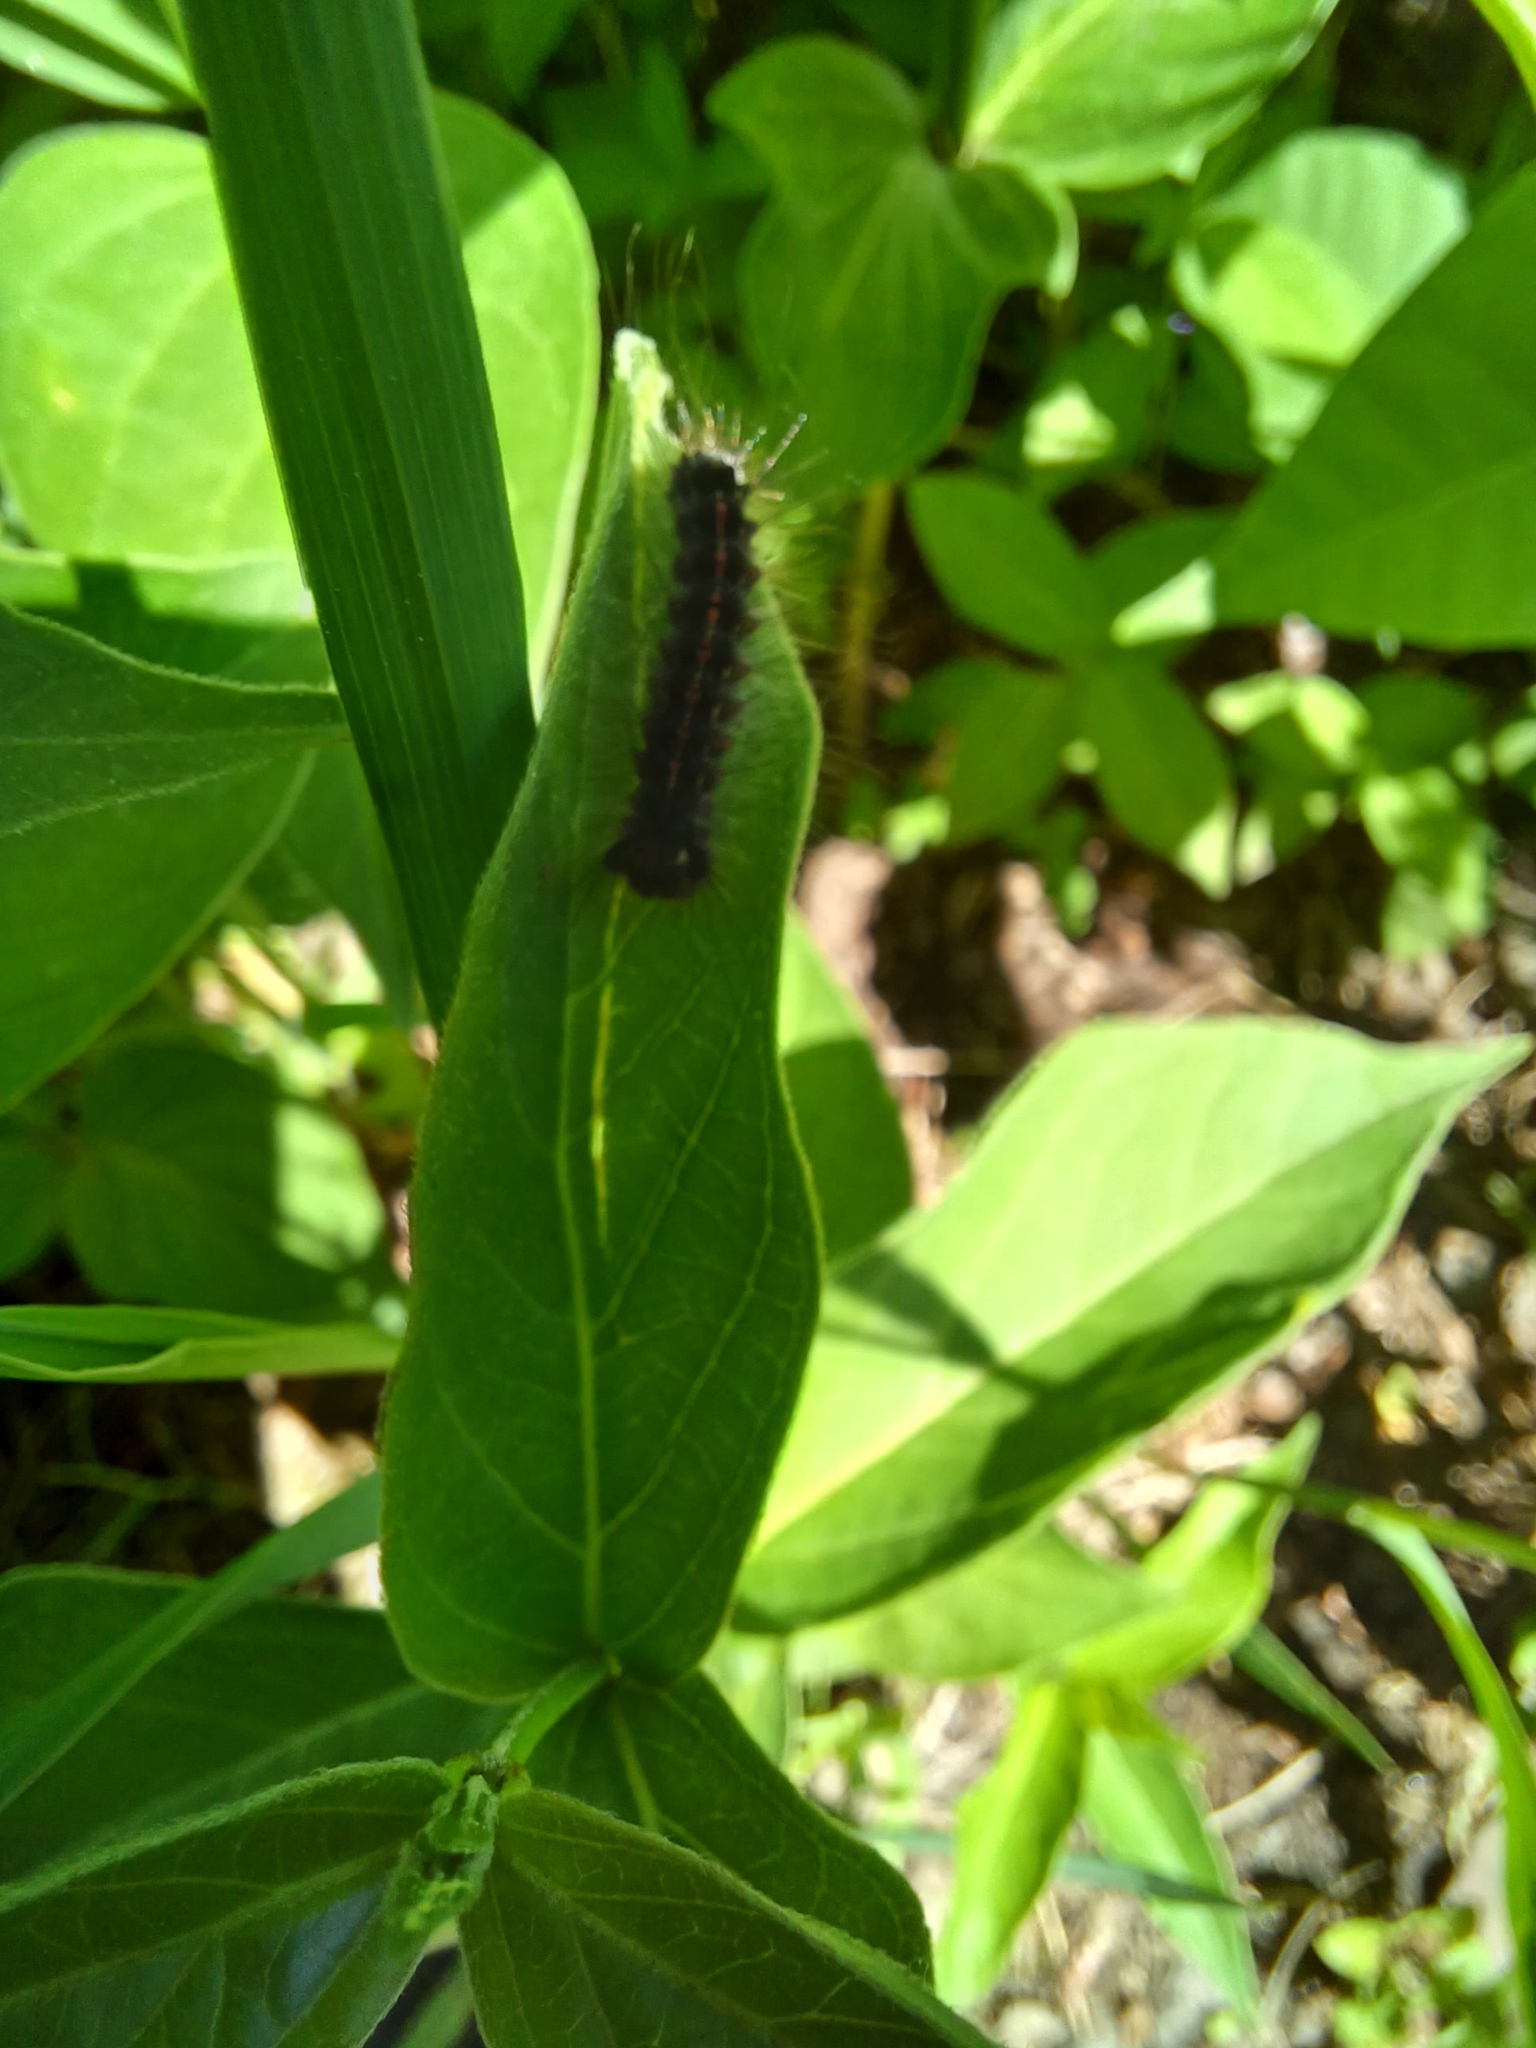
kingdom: Animalia
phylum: Arthropoda
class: Insecta
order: Lepidoptera
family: Erebidae
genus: Lymantria
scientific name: Lymantria dispar
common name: Gypsy moth
